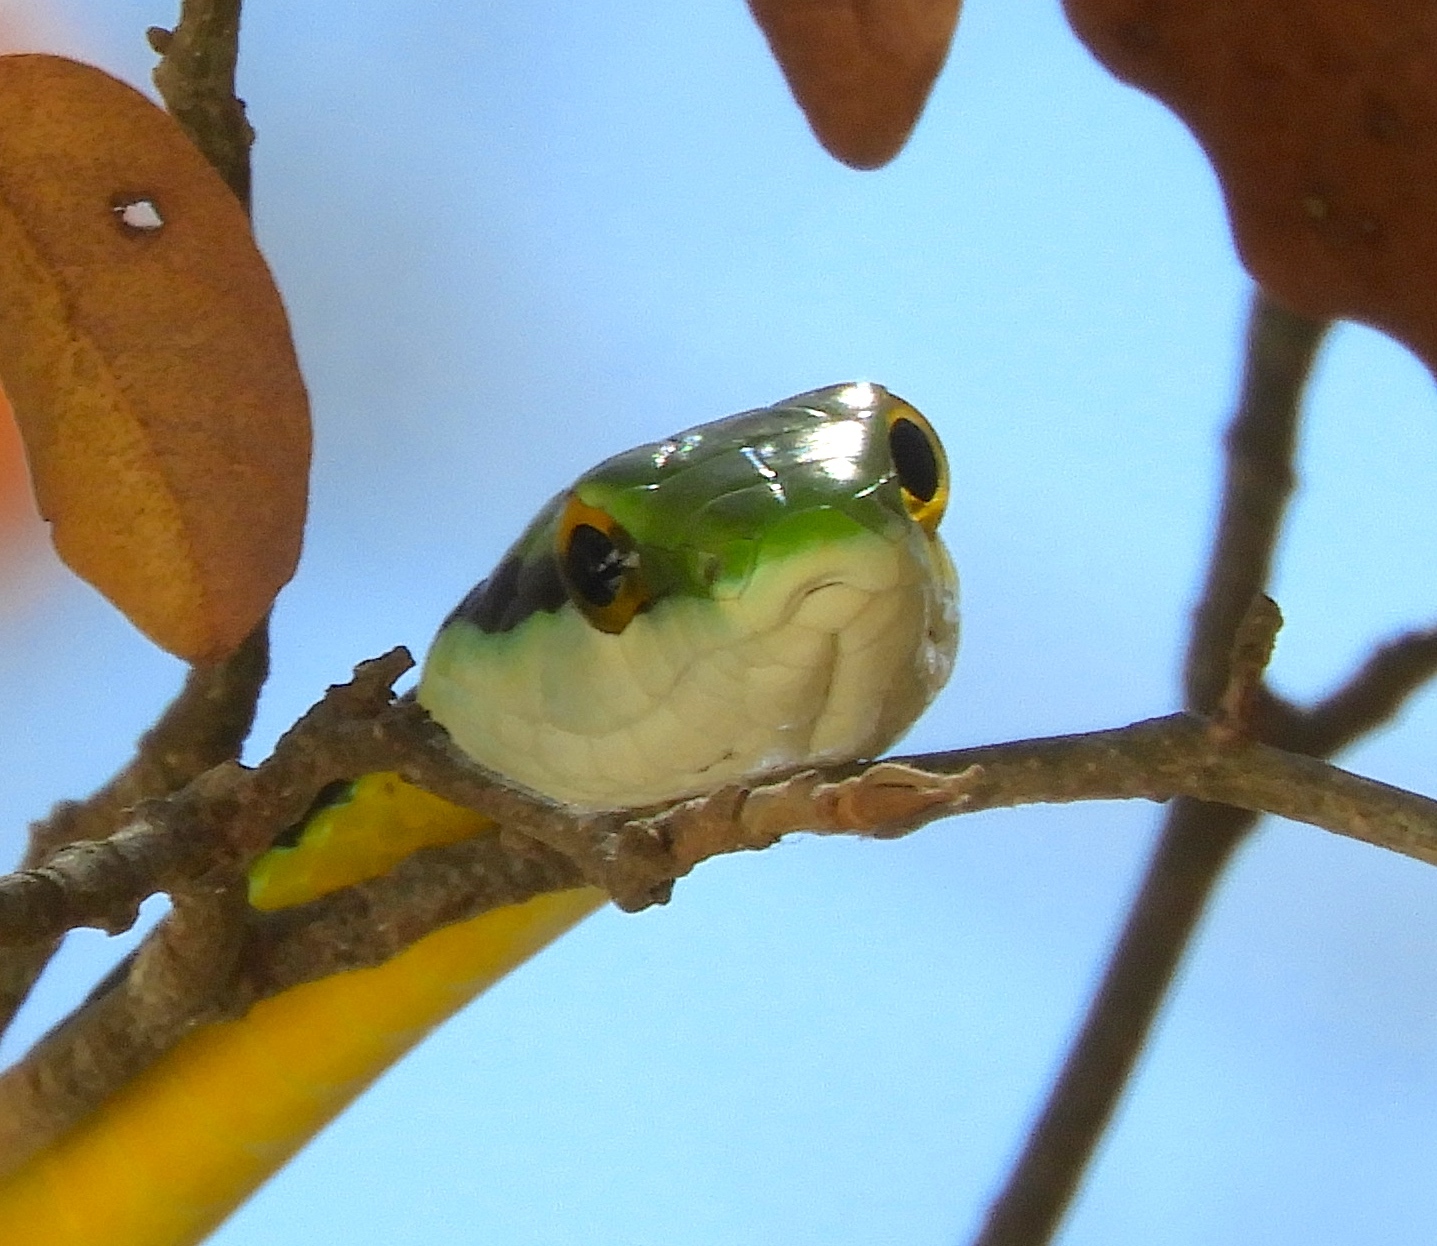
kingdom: Animalia
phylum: Chordata
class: Squamata
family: Colubridae
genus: Leptophis
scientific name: Leptophis diplotropis
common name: Pacific coast parrot snake
